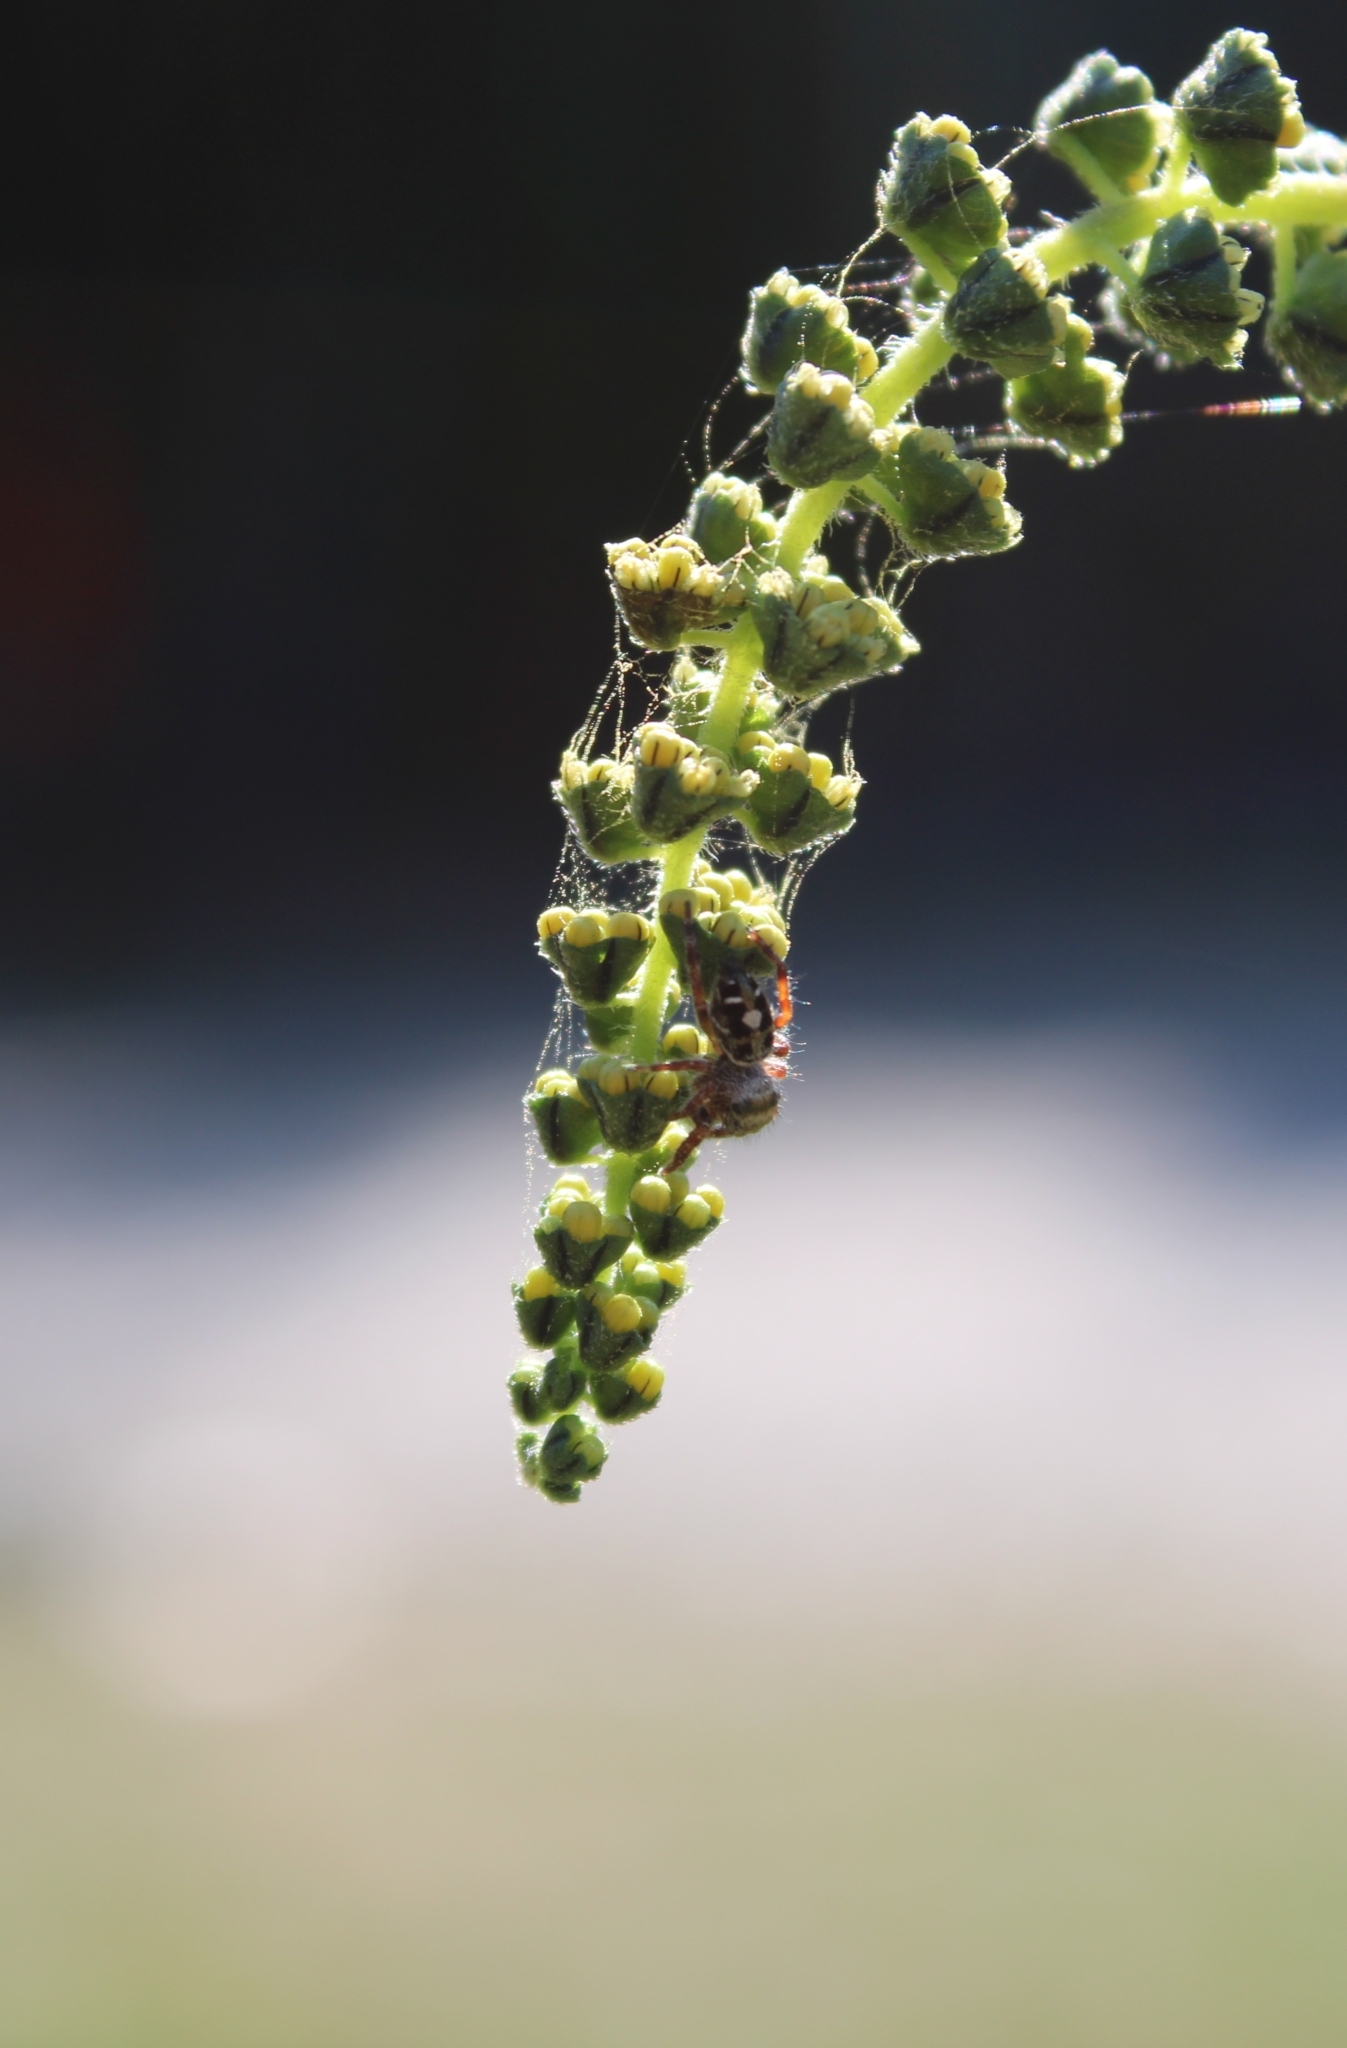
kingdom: Animalia
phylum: Arthropoda
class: Arachnida
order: Araneae
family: Salticidae
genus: Phidippus
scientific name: Phidippus audax
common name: Bold jumper
